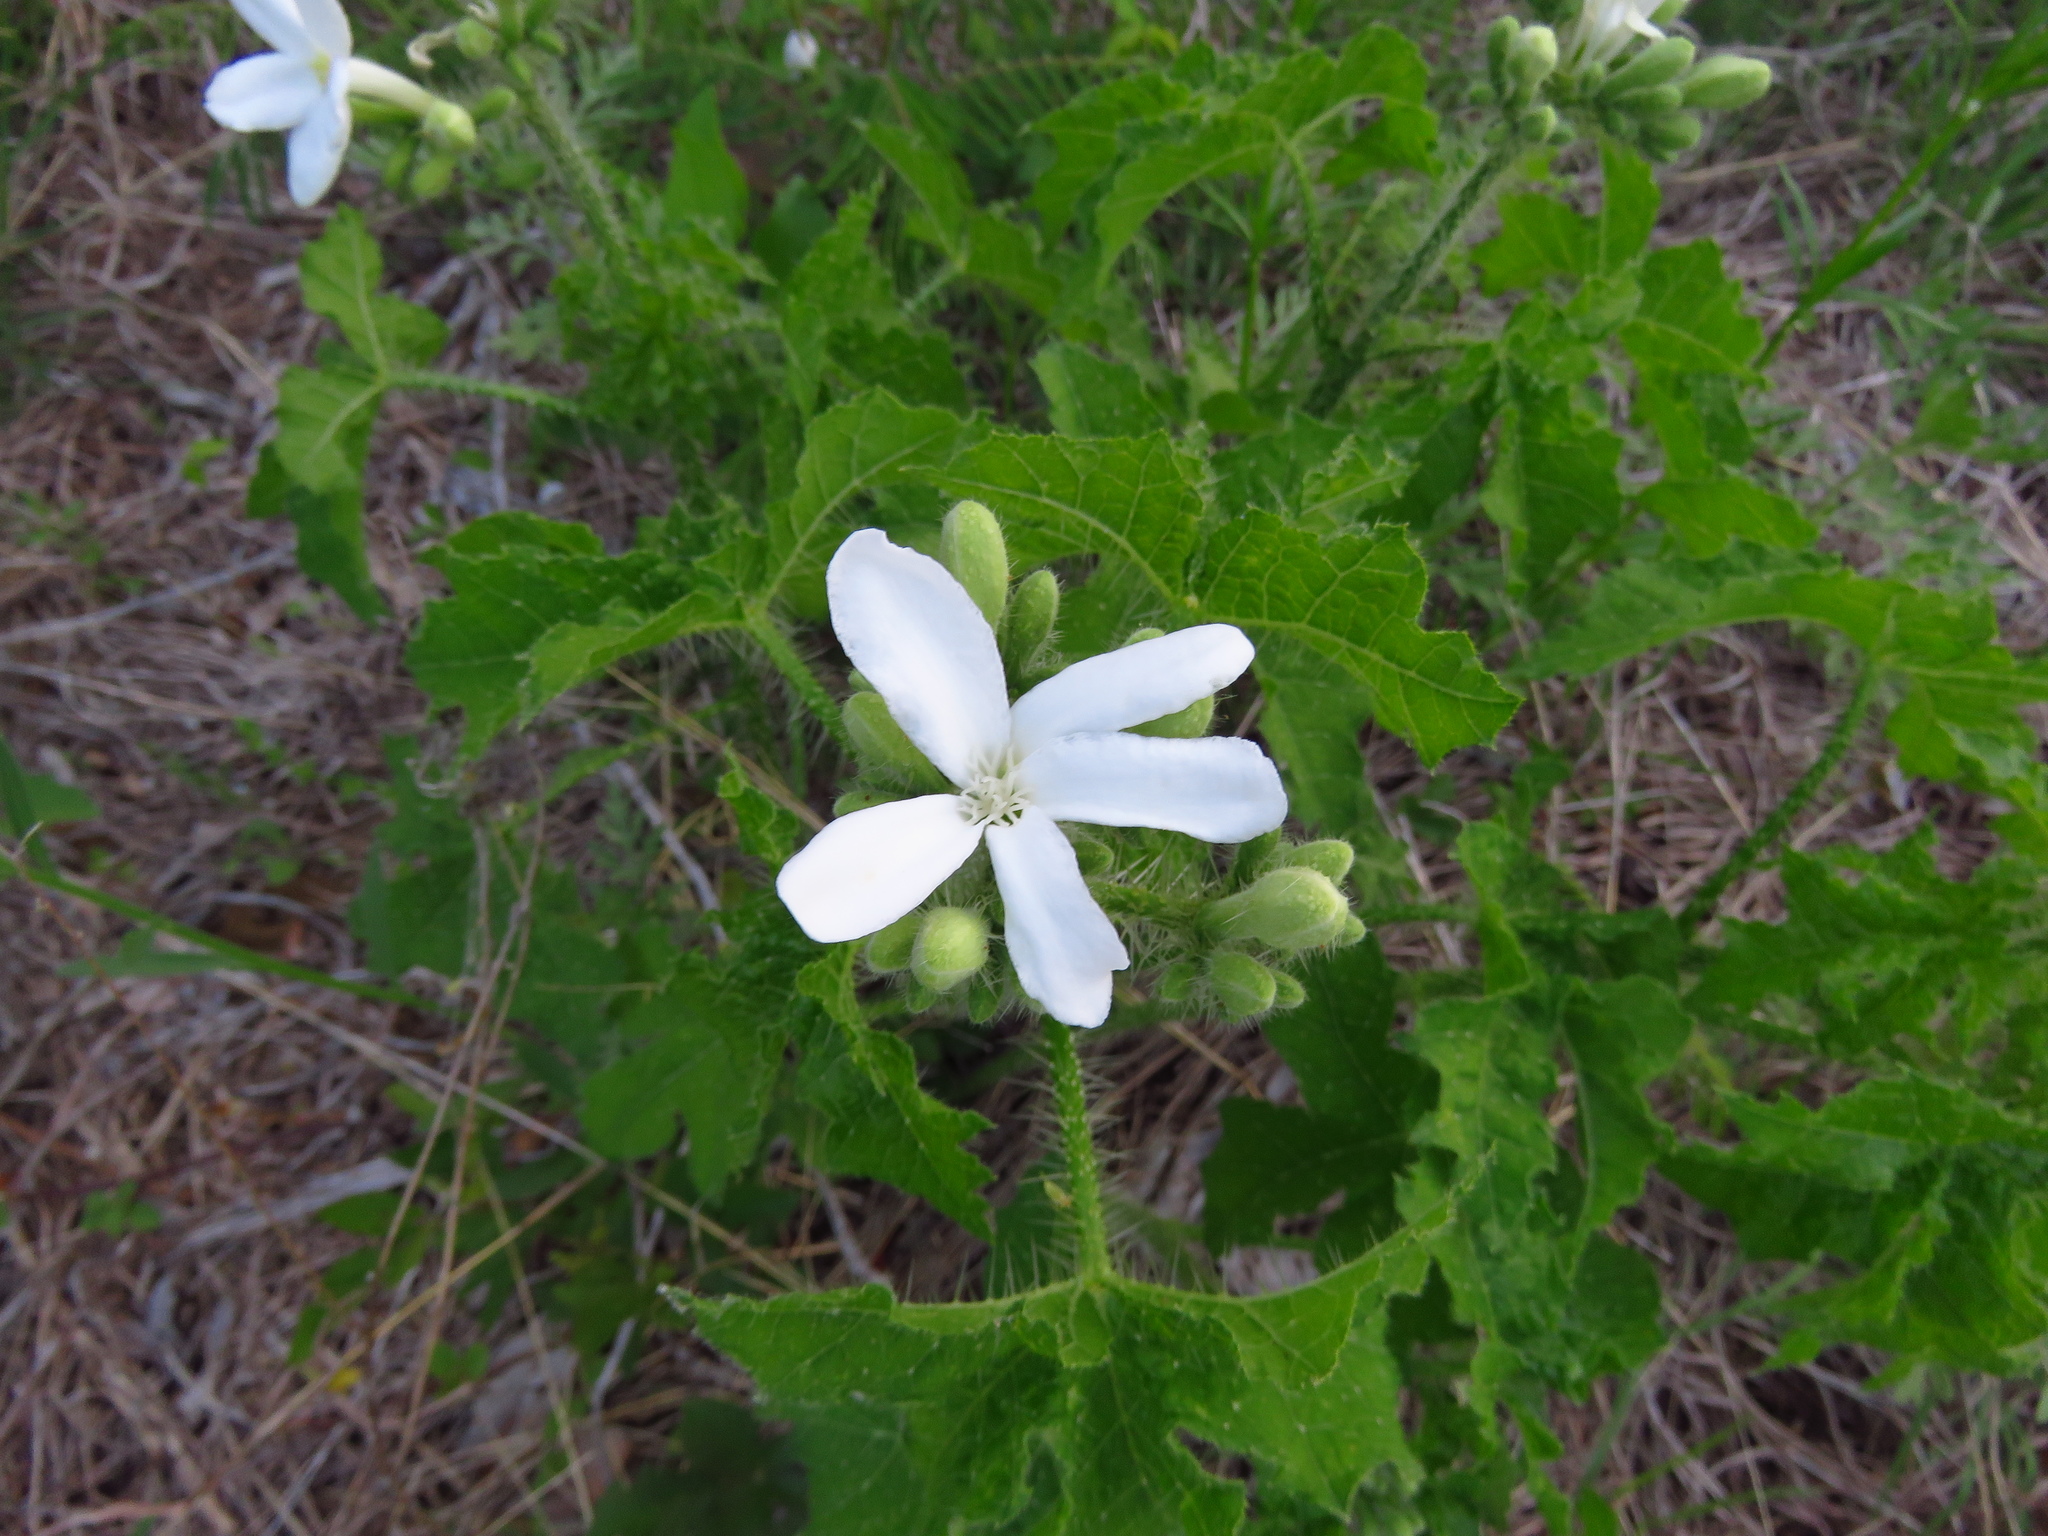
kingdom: Plantae
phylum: Tracheophyta
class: Magnoliopsida
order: Malpighiales
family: Euphorbiaceae
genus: Cnidoscolus
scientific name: Cnidoscolus texanus
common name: Texas bull-nettle
